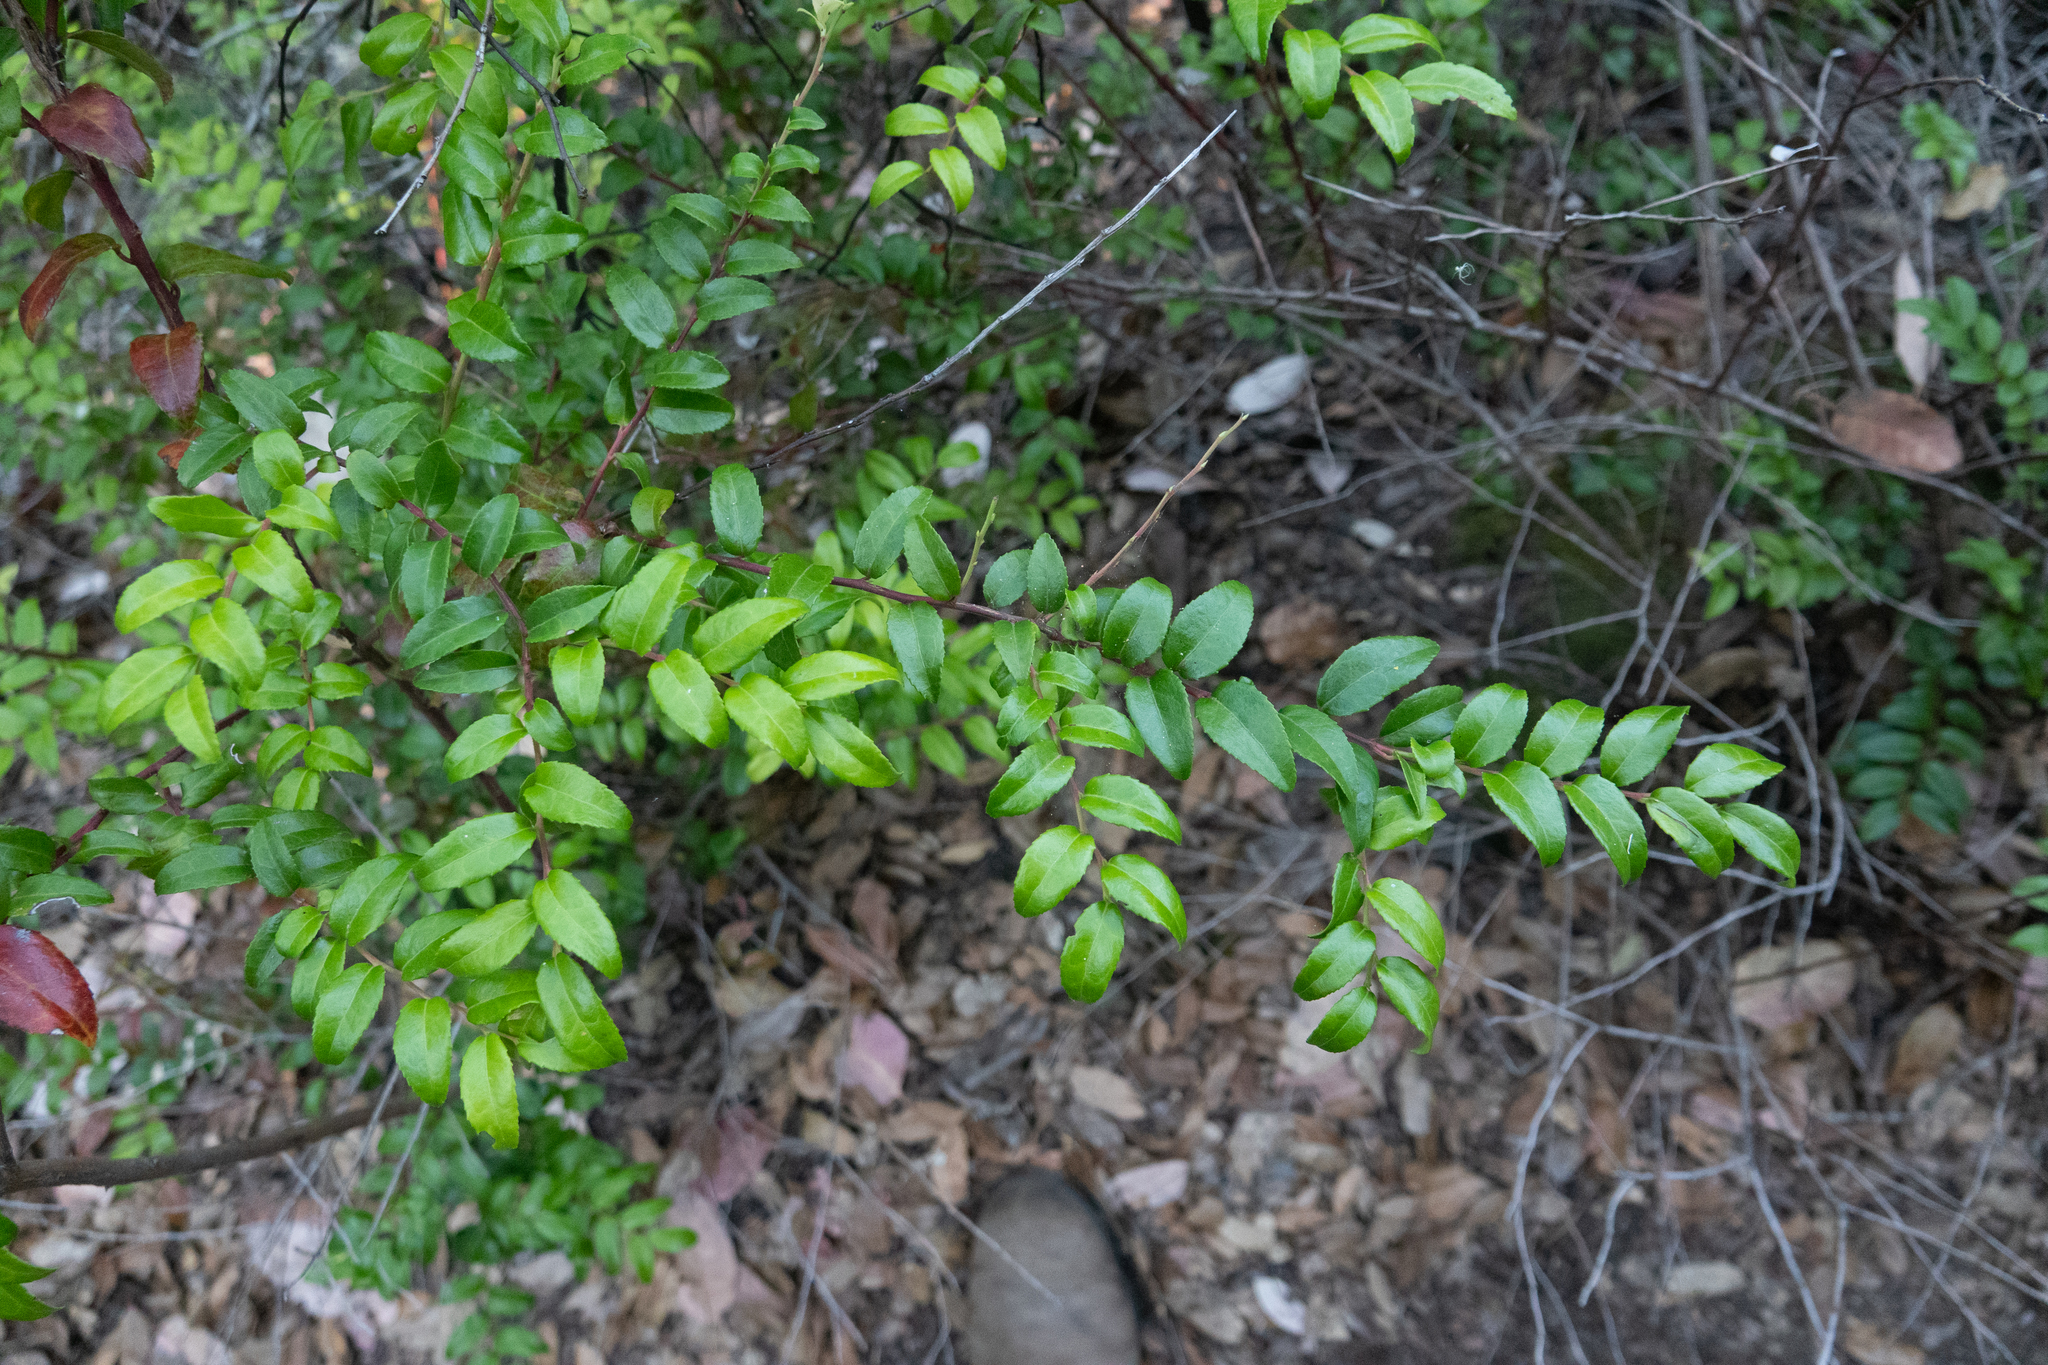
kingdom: Plantae
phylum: Tracheophyta
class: Magnoliopsida
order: Ericales
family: Ericaceae
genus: Vaccinium
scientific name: Vaccinium ovatum
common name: California-huckleberry
